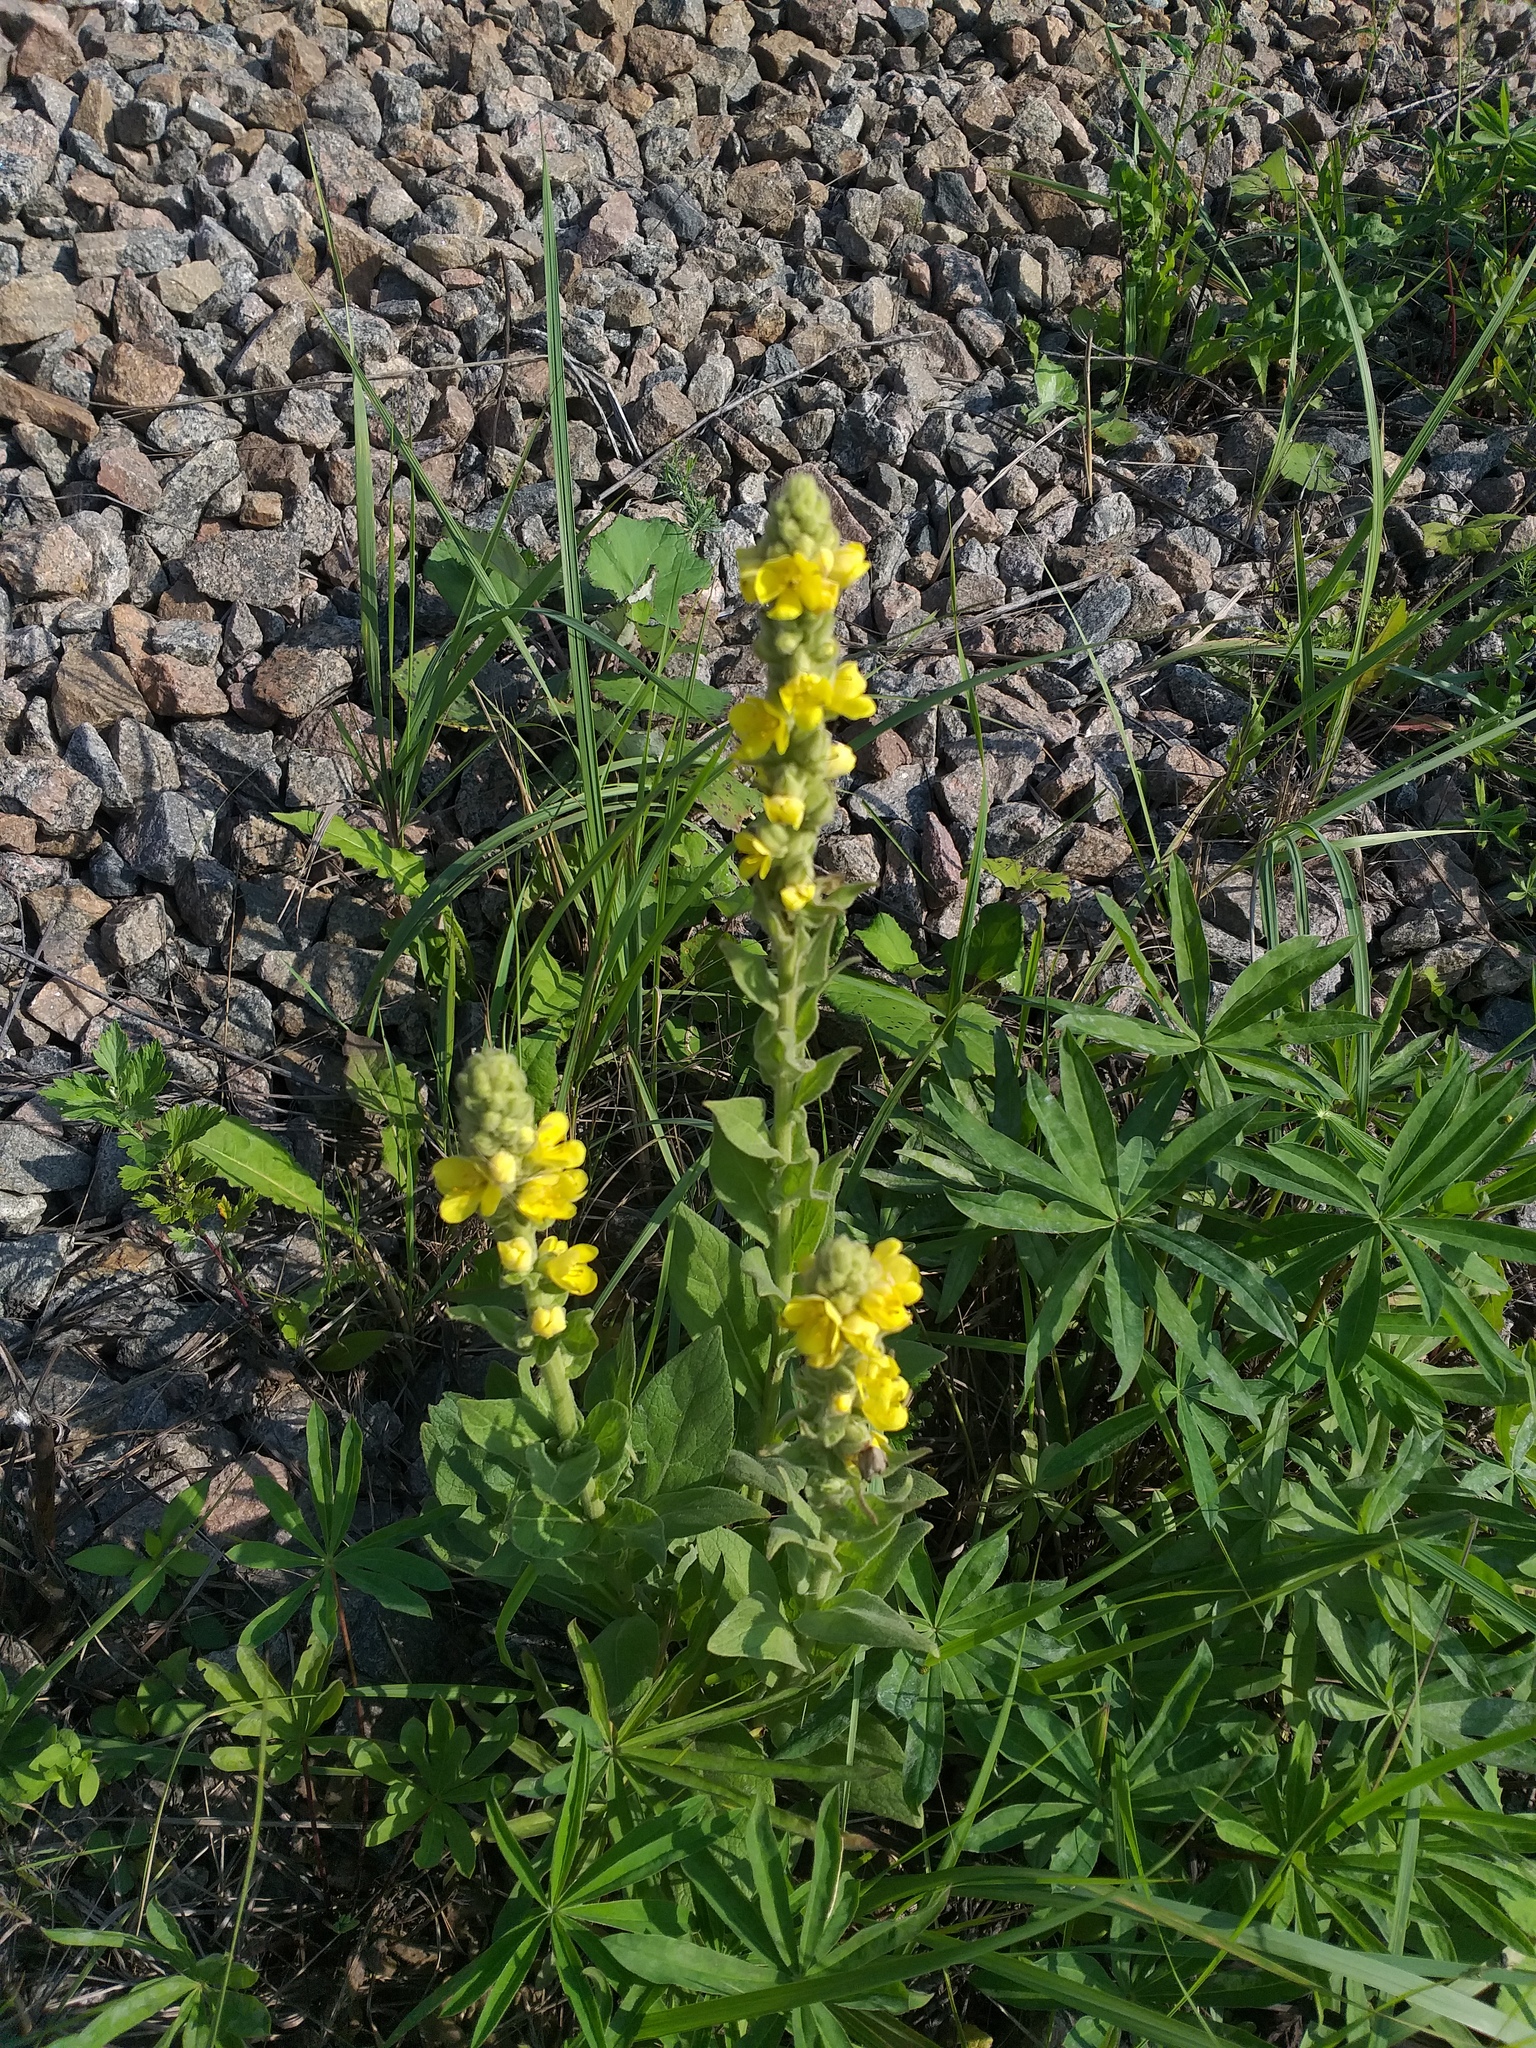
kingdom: Plantae
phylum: Tracheophyta
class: Magnoliopsida
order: Lamiales
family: Scrophulariaceae
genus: Verbascum
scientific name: Verbascum thapsus
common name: Common mullein
